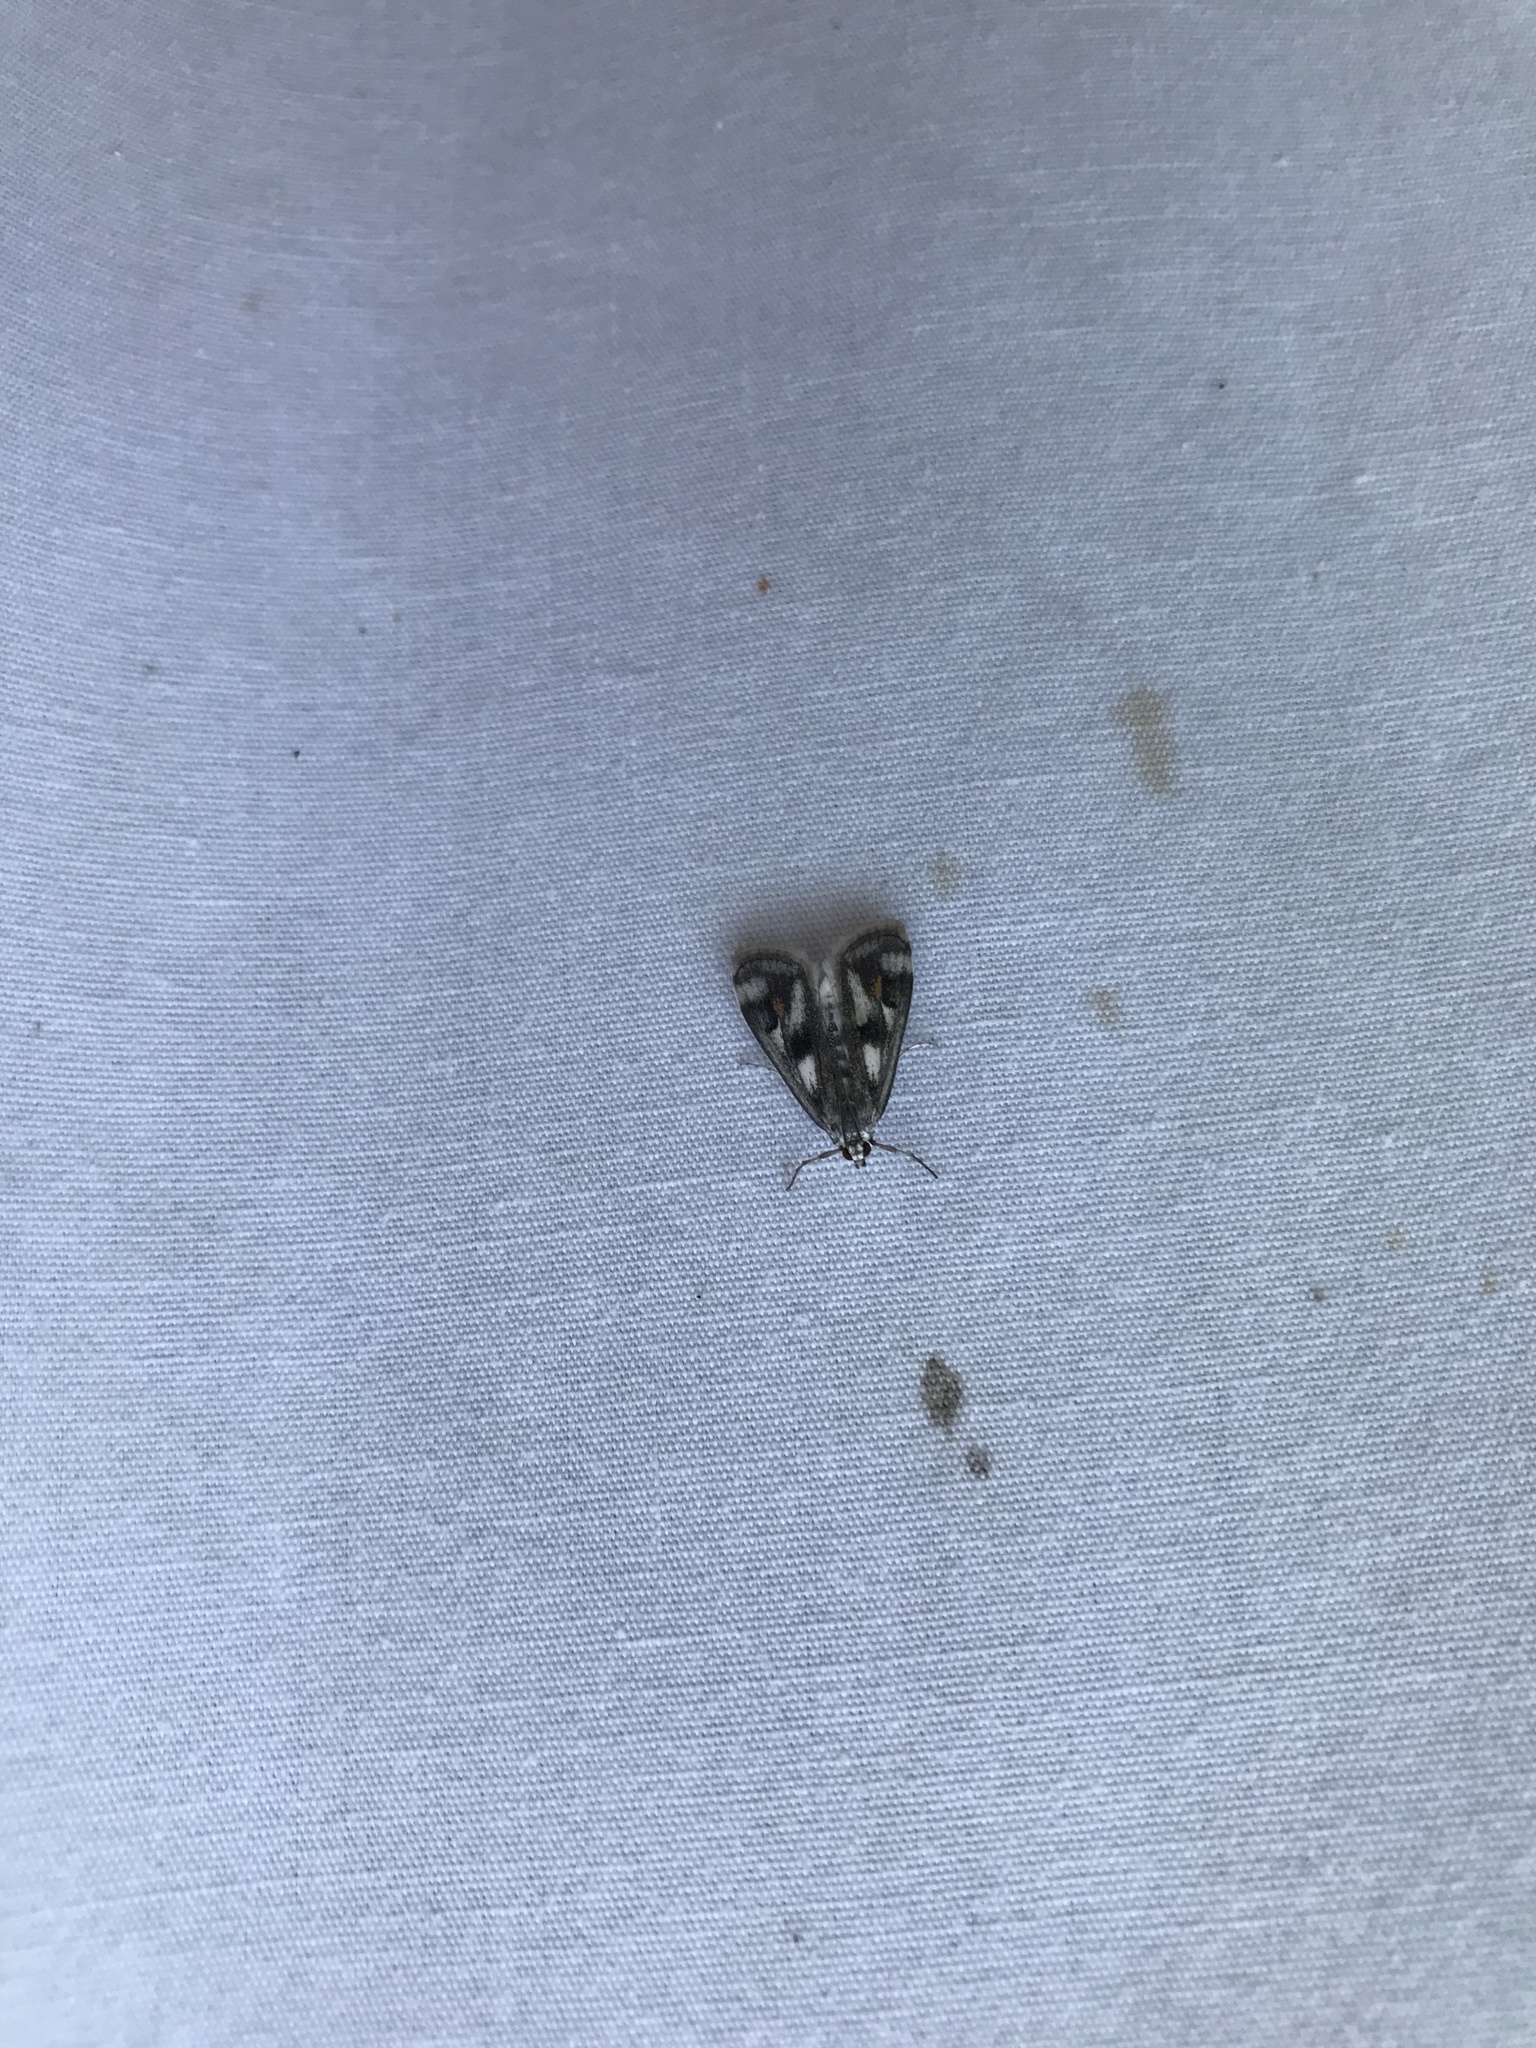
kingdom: Animalia
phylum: Arthropoda
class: Insecta
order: Lepidoptera
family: Crambidae
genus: Parapoynx
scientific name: Parapoynx maculalis
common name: Polymorphic pondweed moth
